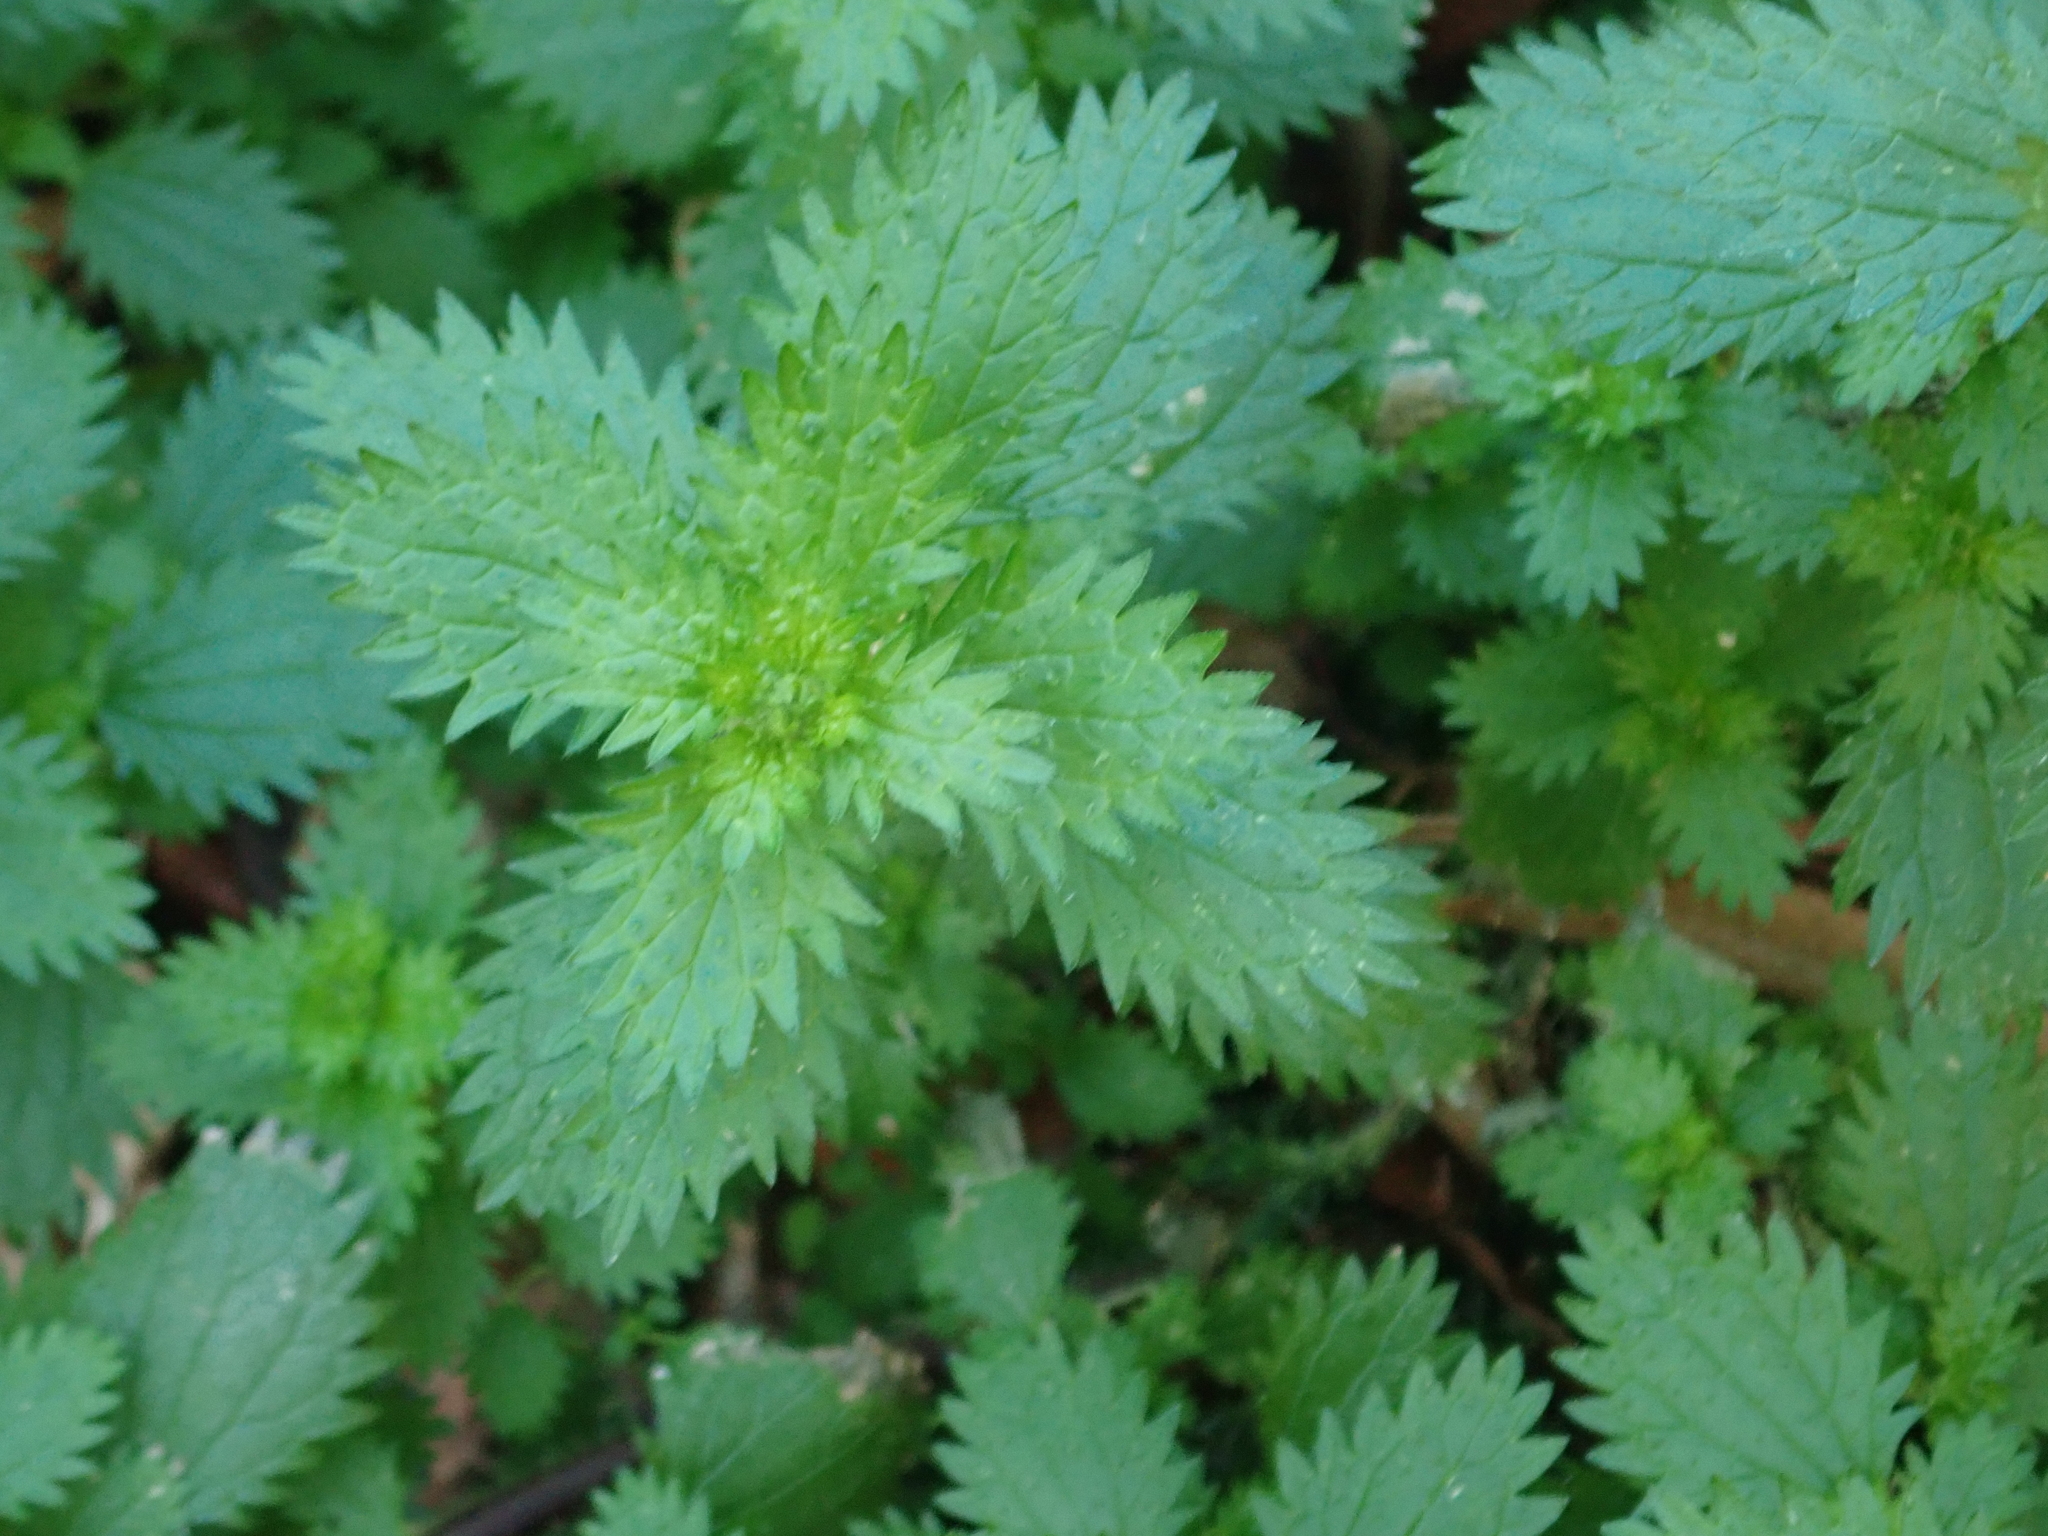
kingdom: Plantae
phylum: Tracheophyta
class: Magnoliopsida
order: Rosales
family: Urticaceae
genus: Urtica
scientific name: Urtica urens
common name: Dwarf nettle
